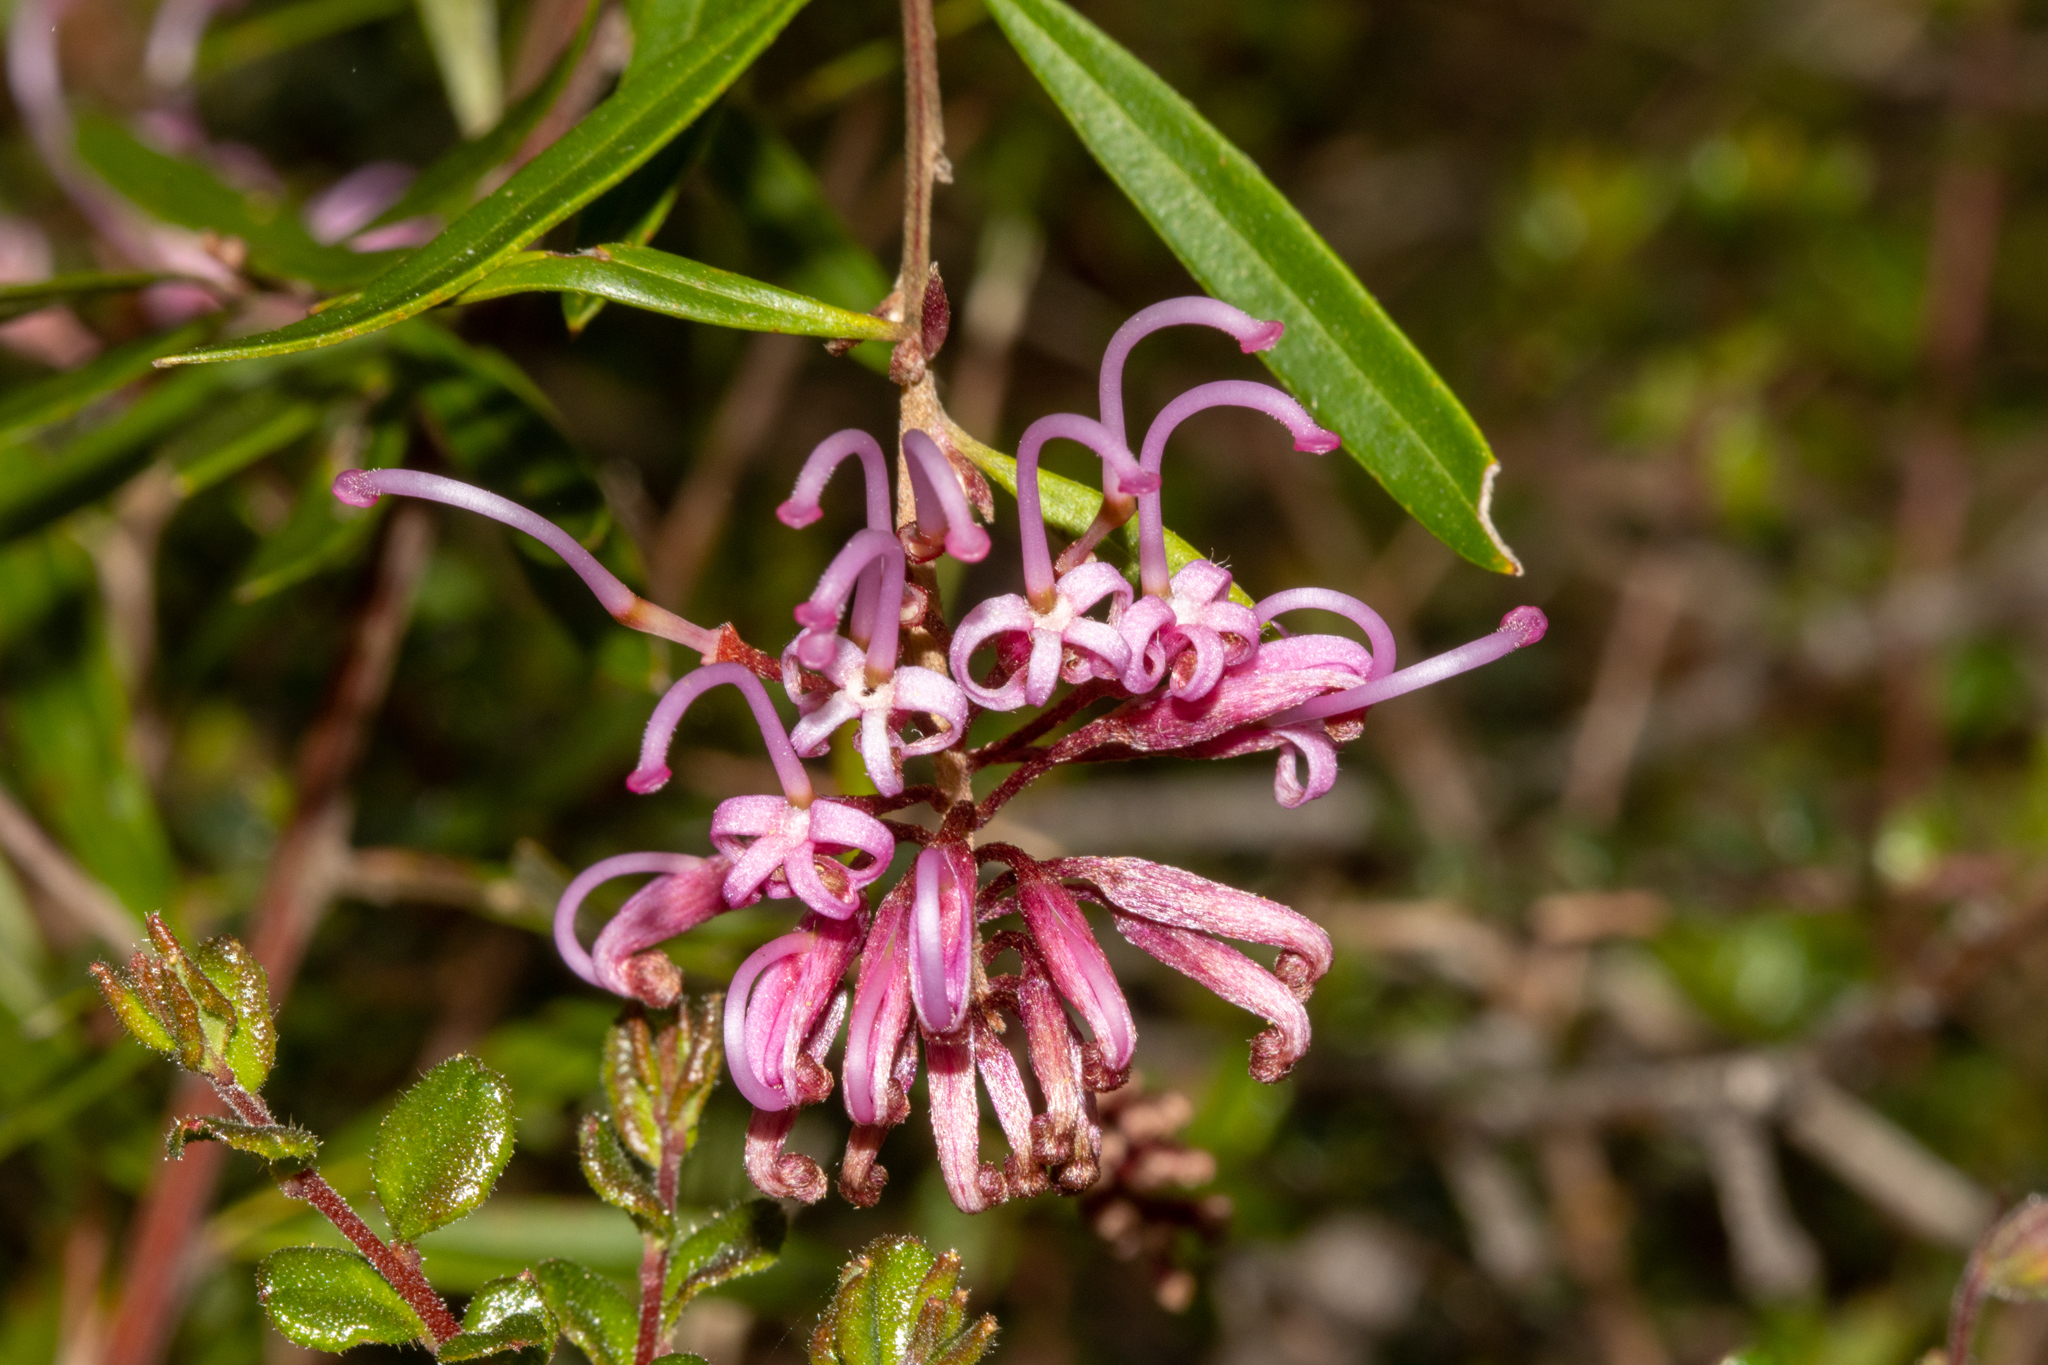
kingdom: Plantae
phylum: Tracheophyta
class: Magnoliopsida
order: Proteales
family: Proteaceae
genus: Grevillea
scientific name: Grevillea sericea
